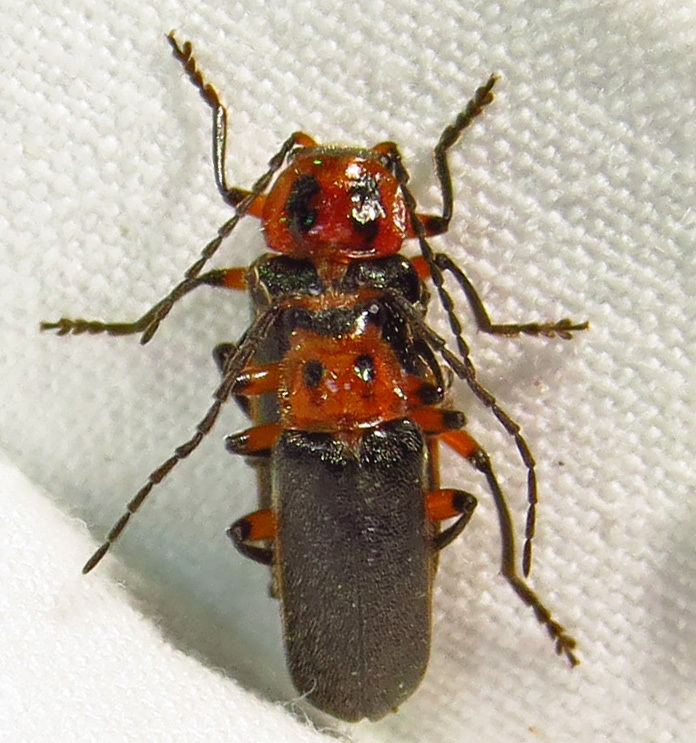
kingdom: Animalia
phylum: Arthropoda
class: Insecta
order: Coleoptera
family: Cantharidae
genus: Atalantycha
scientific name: Atalantycha bilineata
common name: Two-lined leatherwing
